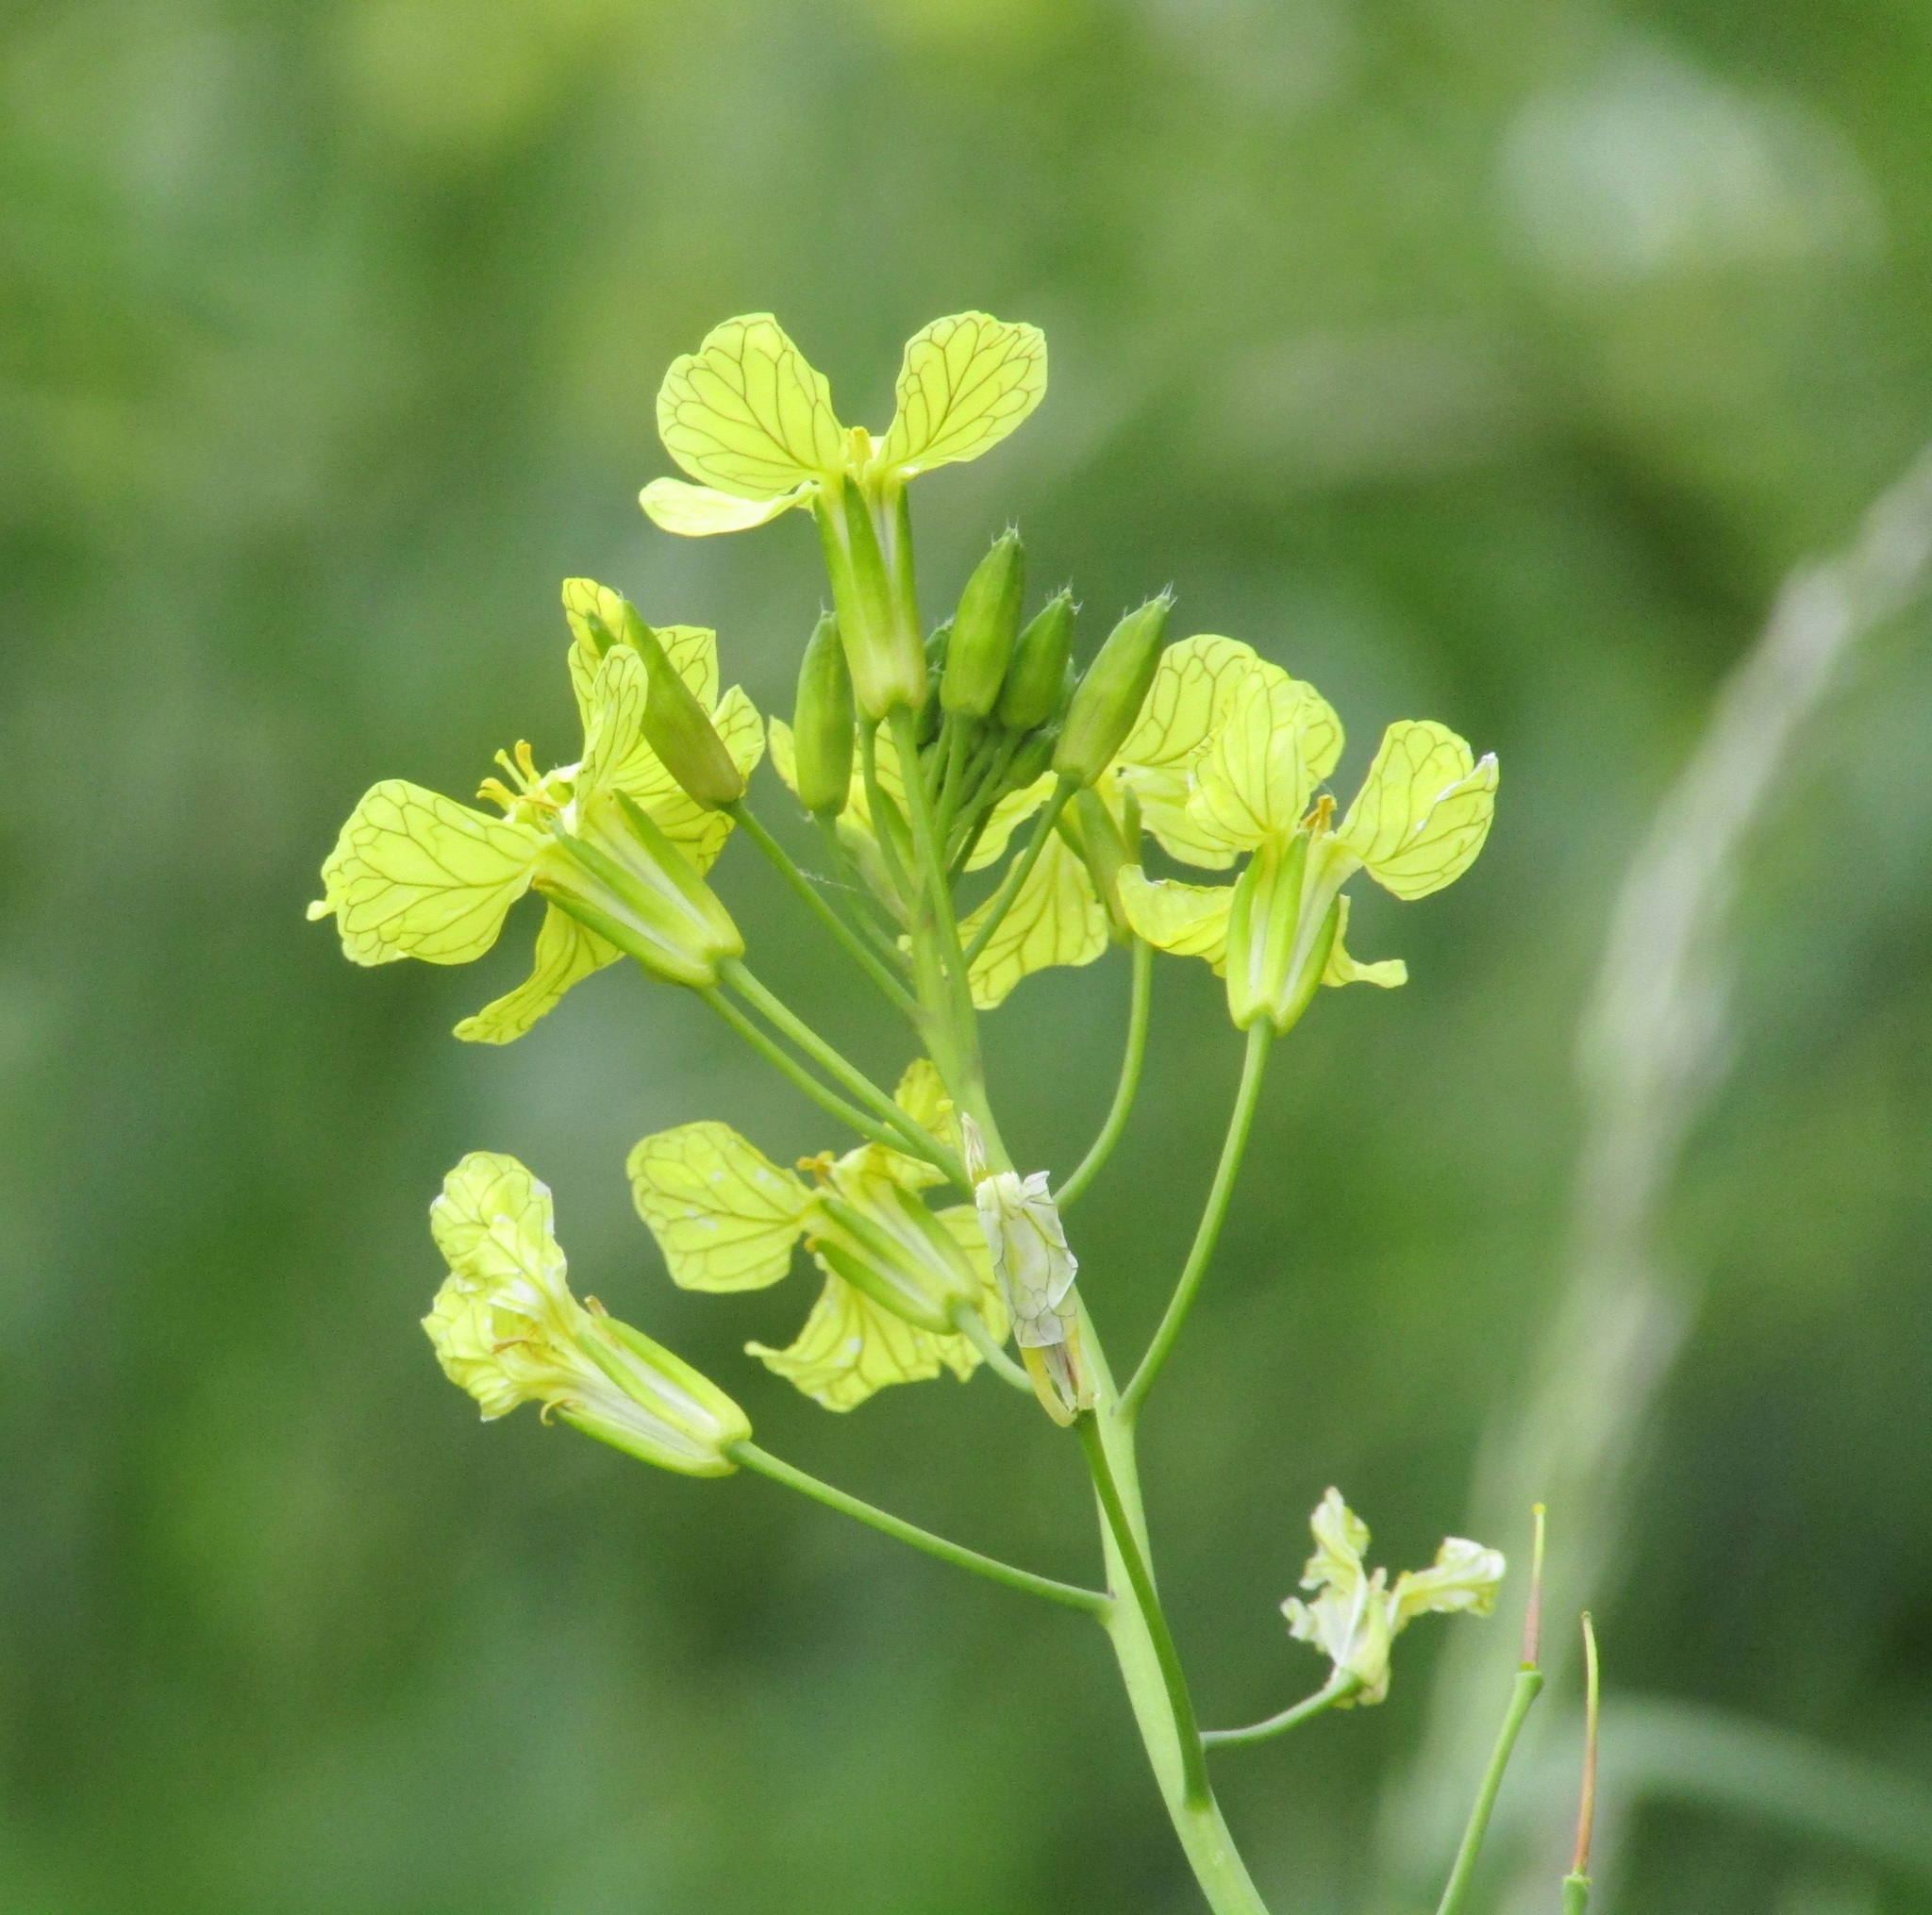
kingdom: Plantae
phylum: Tracheophyta
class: Magnoliopsida
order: Brassicales
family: Brassicaceae
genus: Raphanus
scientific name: Raphanus raphanistrum
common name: Wild radish
